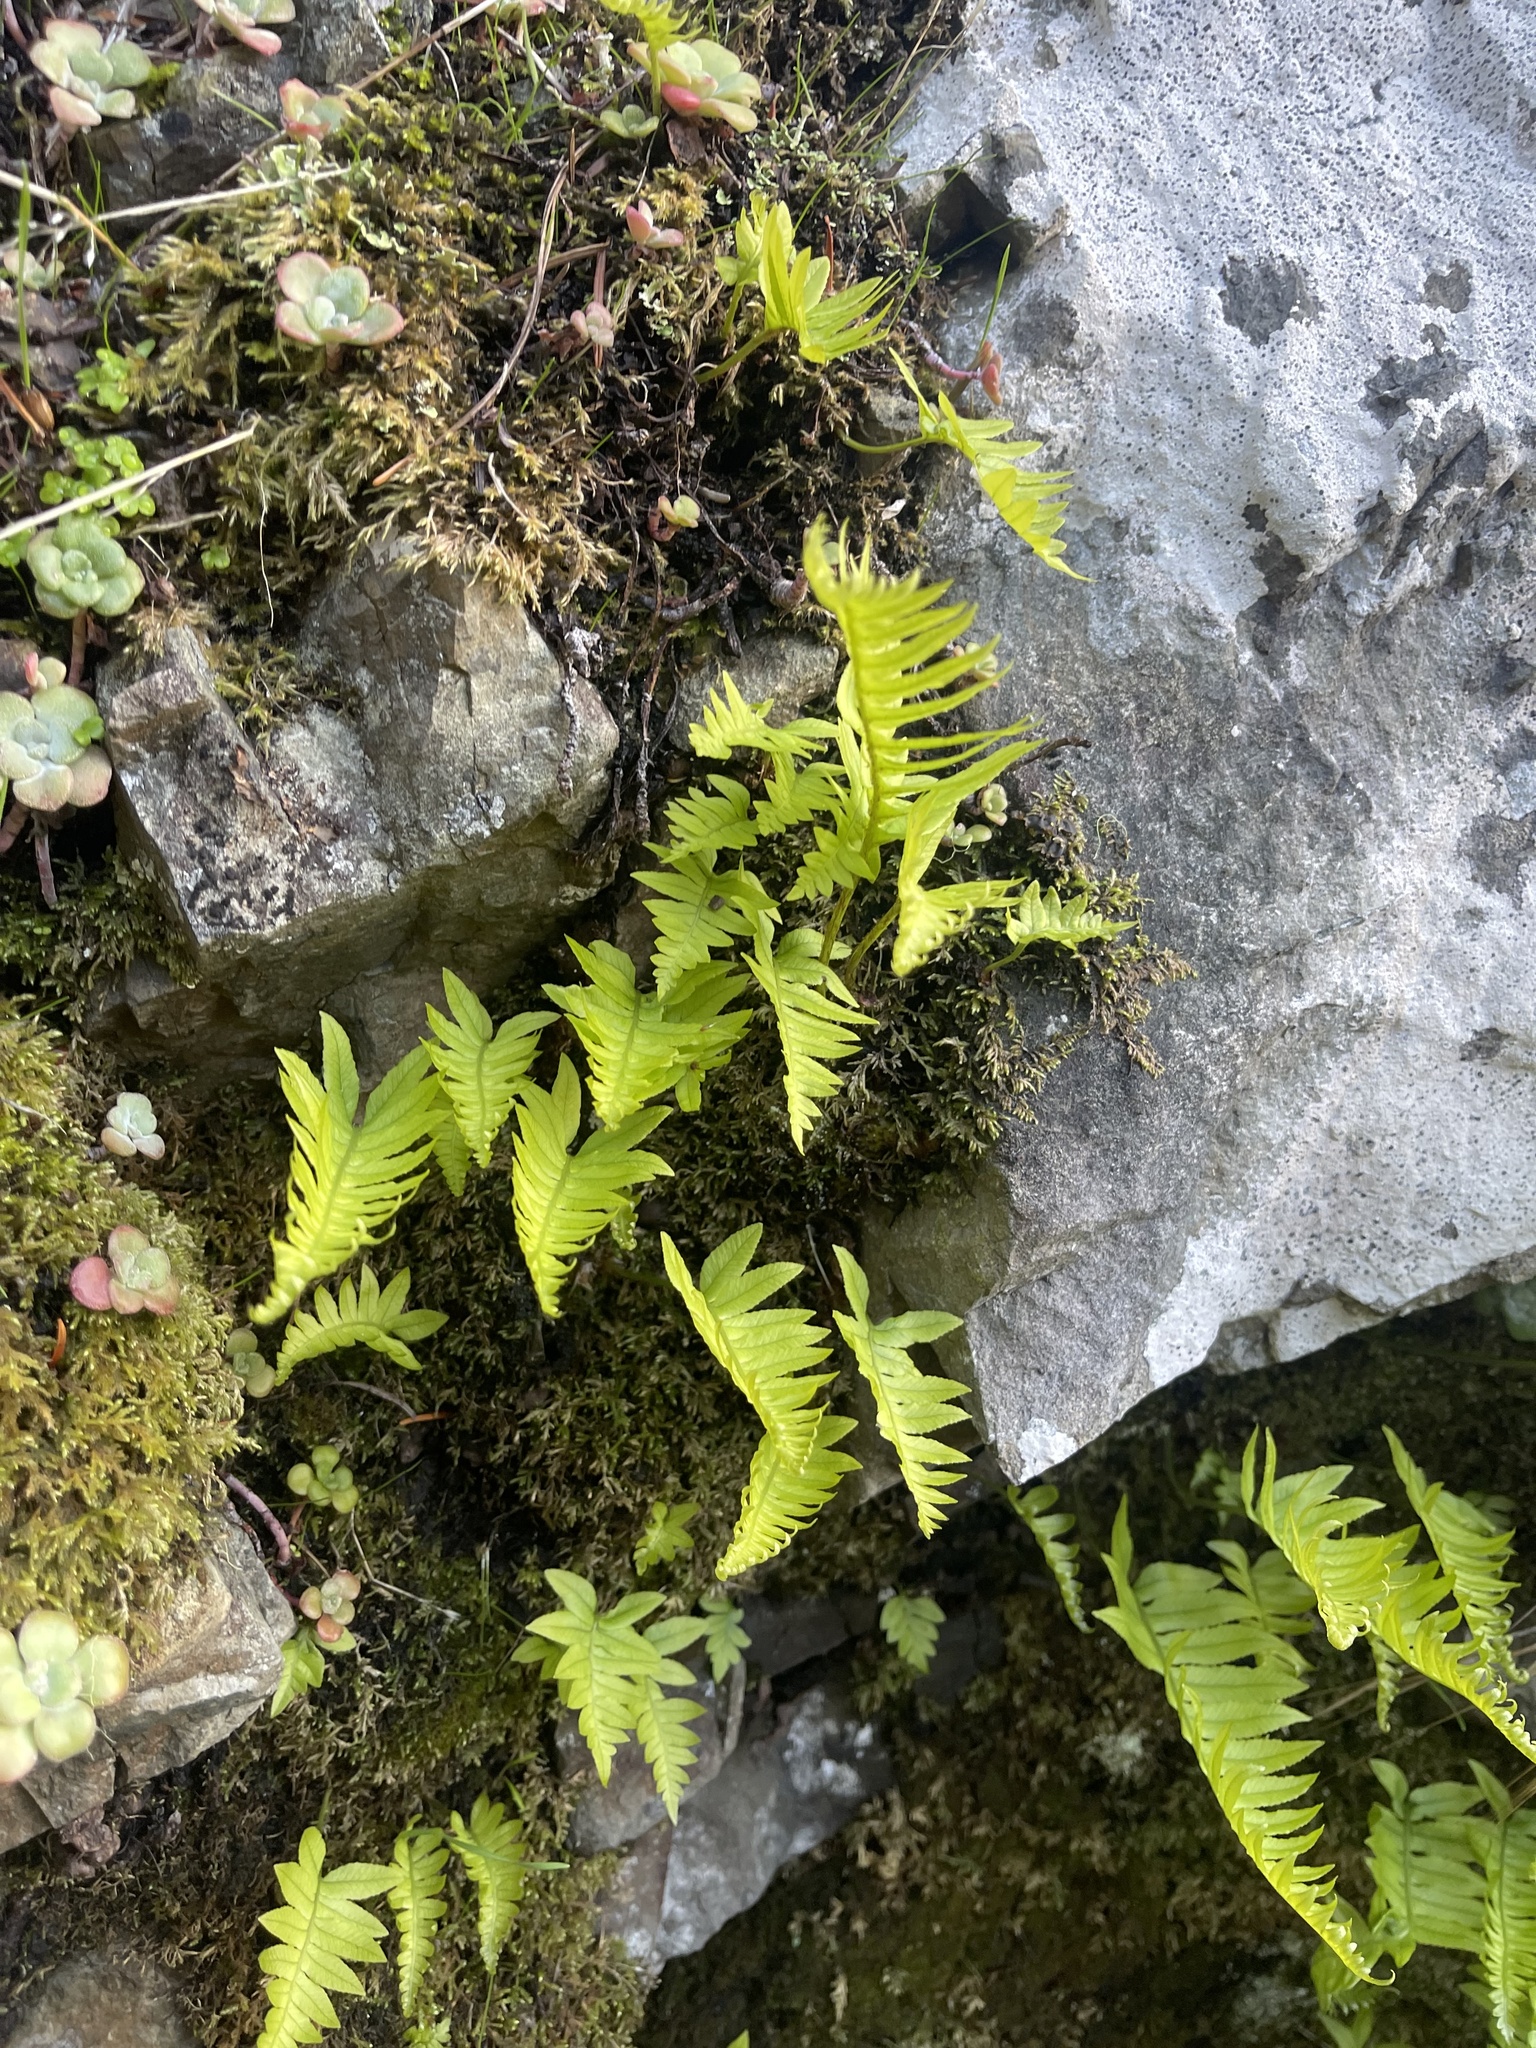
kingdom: Plantae
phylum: Tracheophyta
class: Polypodiopsida
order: Polypodiales
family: Polypodiaceae
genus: Polypodium
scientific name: Polypodium glycyrrhiza
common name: Licorice fern
